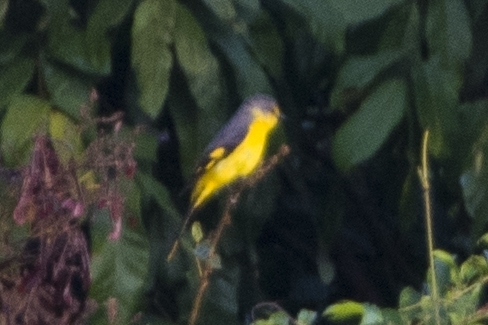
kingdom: Animalia
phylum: Chordata
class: Aves
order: Passeriformes
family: Campephagidae
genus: Pericrocotus
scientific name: Pericrocotus flammeus
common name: Orange minivet
